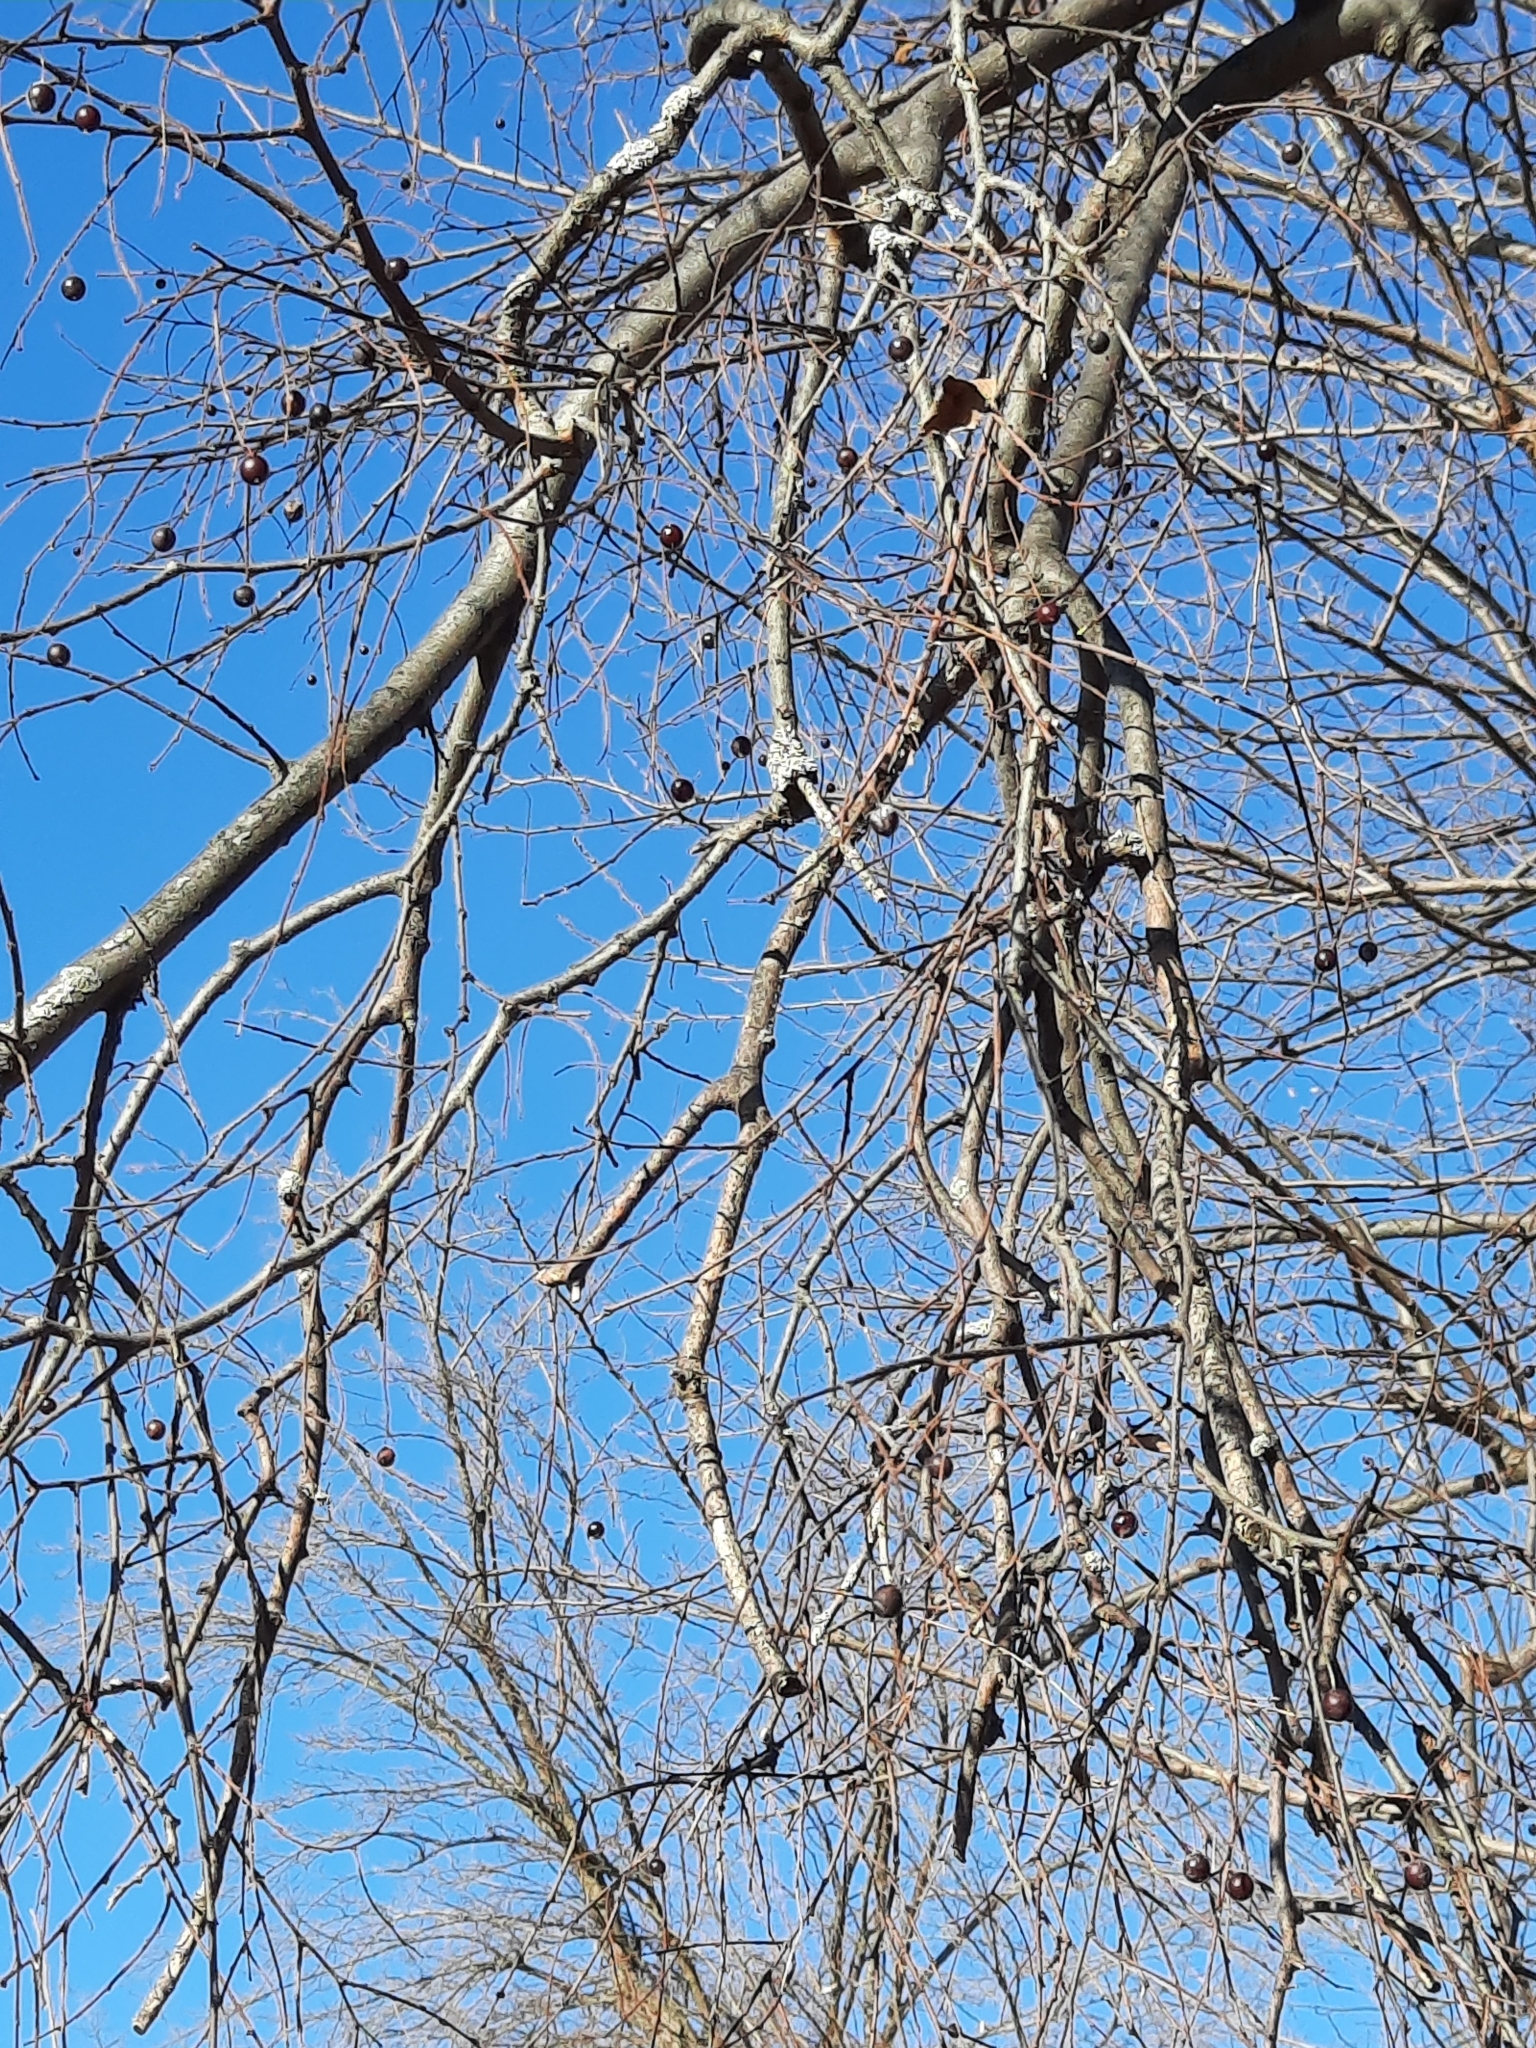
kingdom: Plantae
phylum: Tracheophyta
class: Magnoliopsida
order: Rosales
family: Cannabaceae
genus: Celtis
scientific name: Celtis occidentalis
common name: Common hackberry
